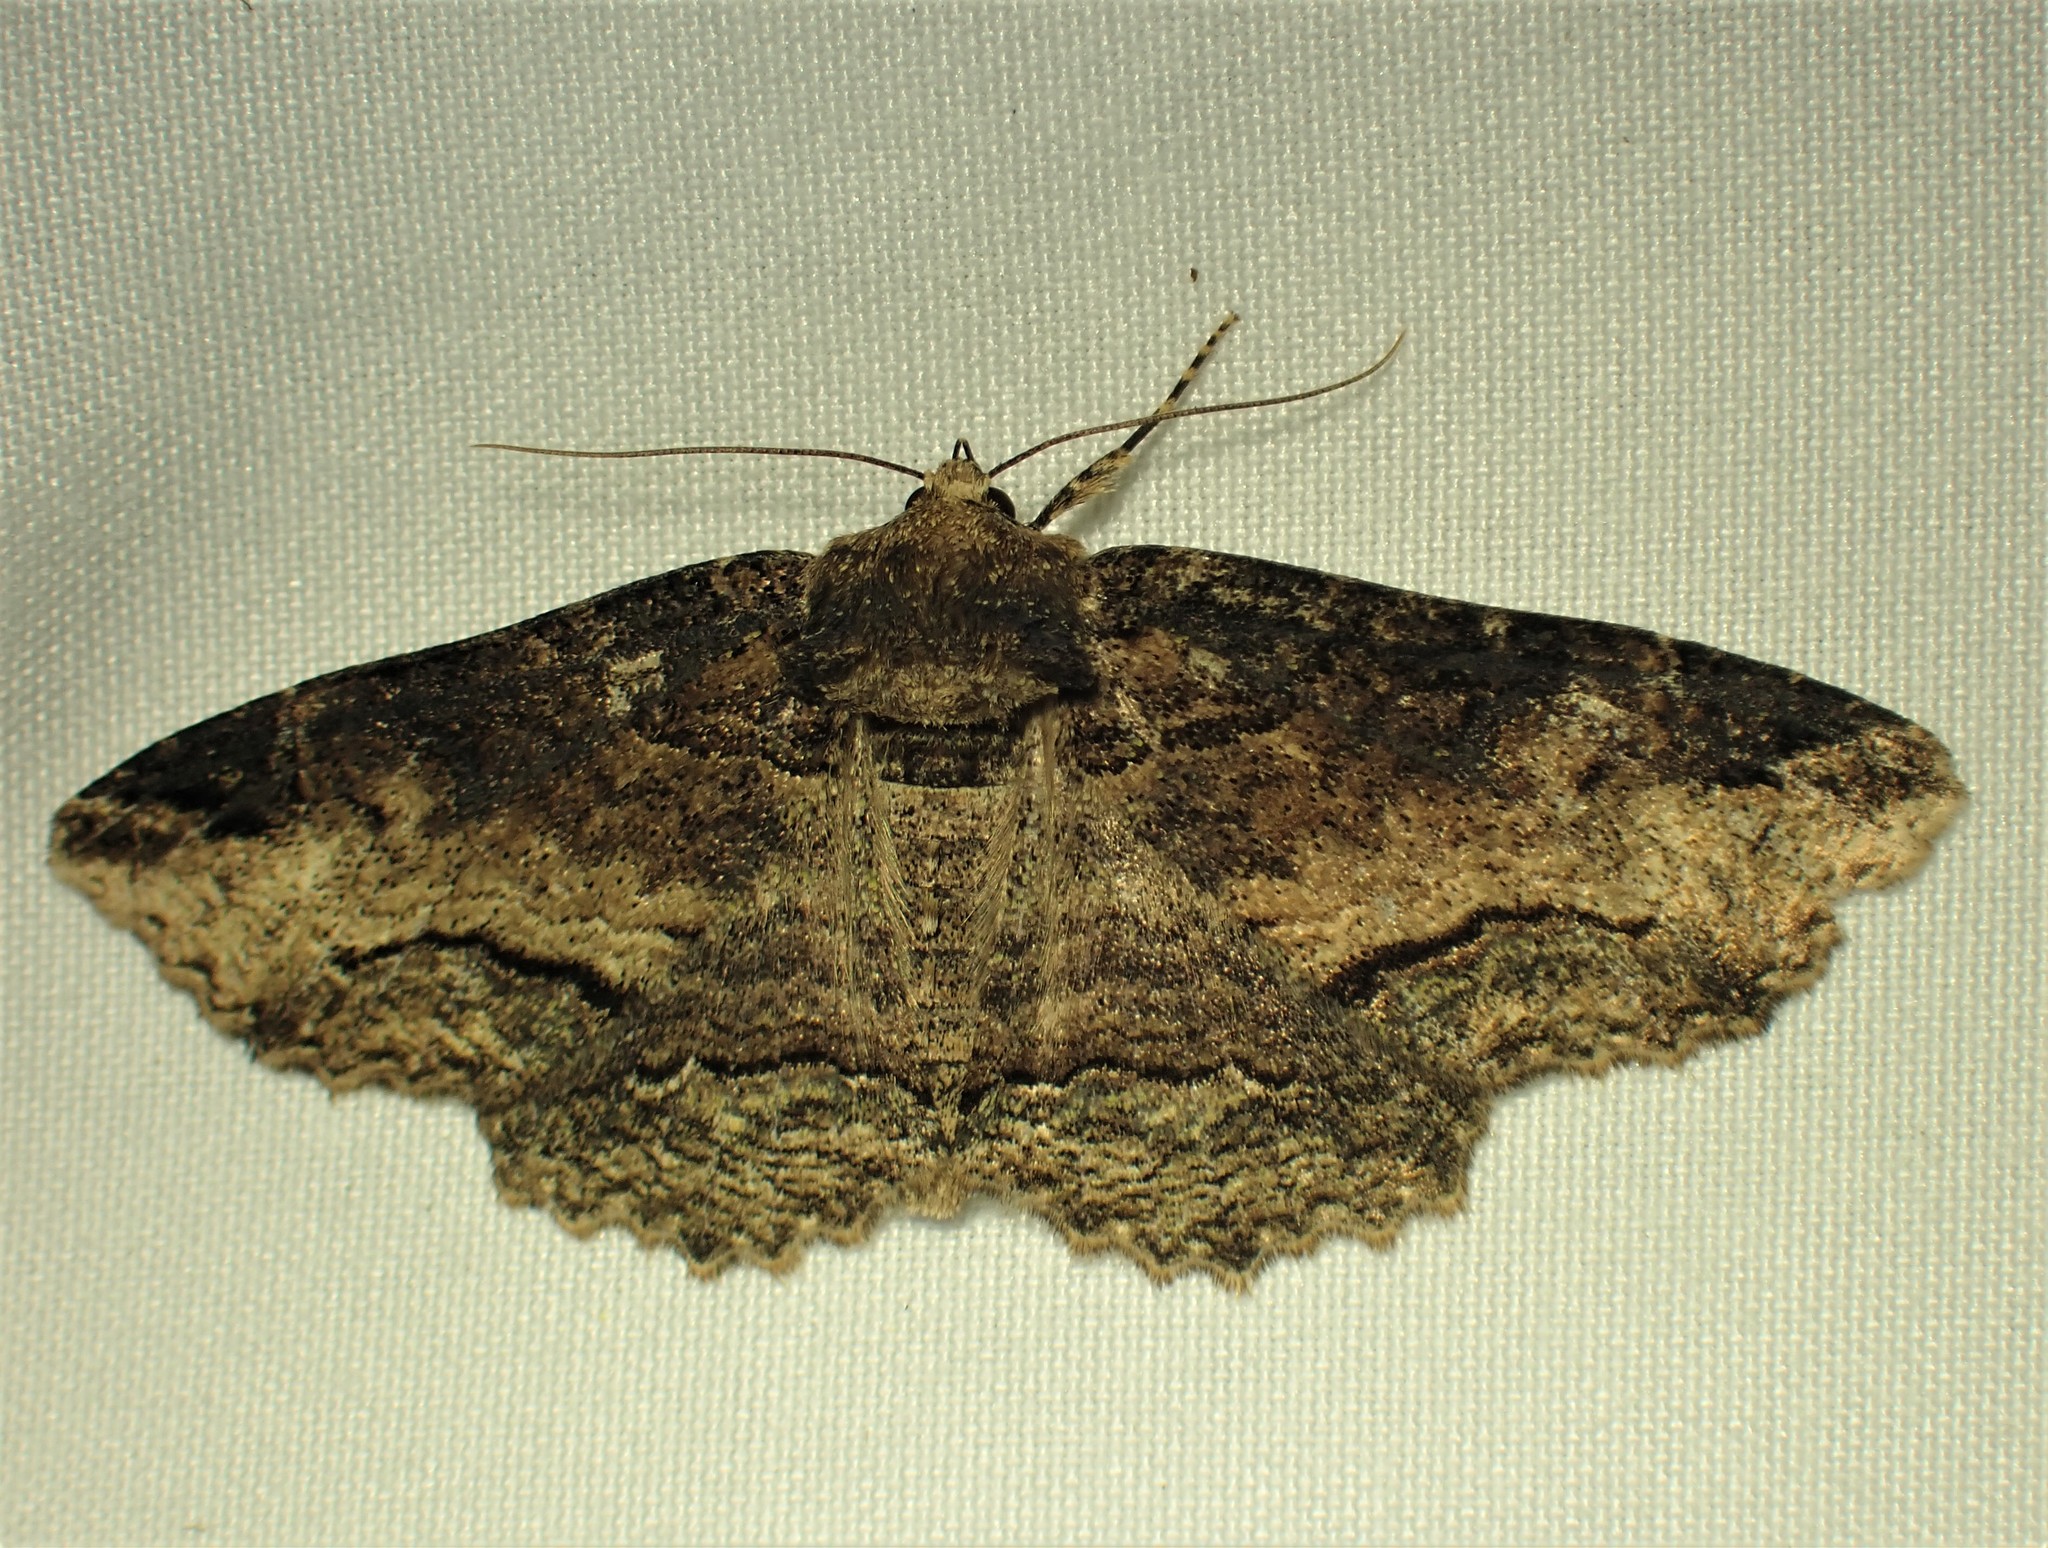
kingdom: Animalia
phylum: Arthropoda
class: Insecta
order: Lepidoptera
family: Erebidae
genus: Zale
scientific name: Zale minerea
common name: Colorful zale moth
